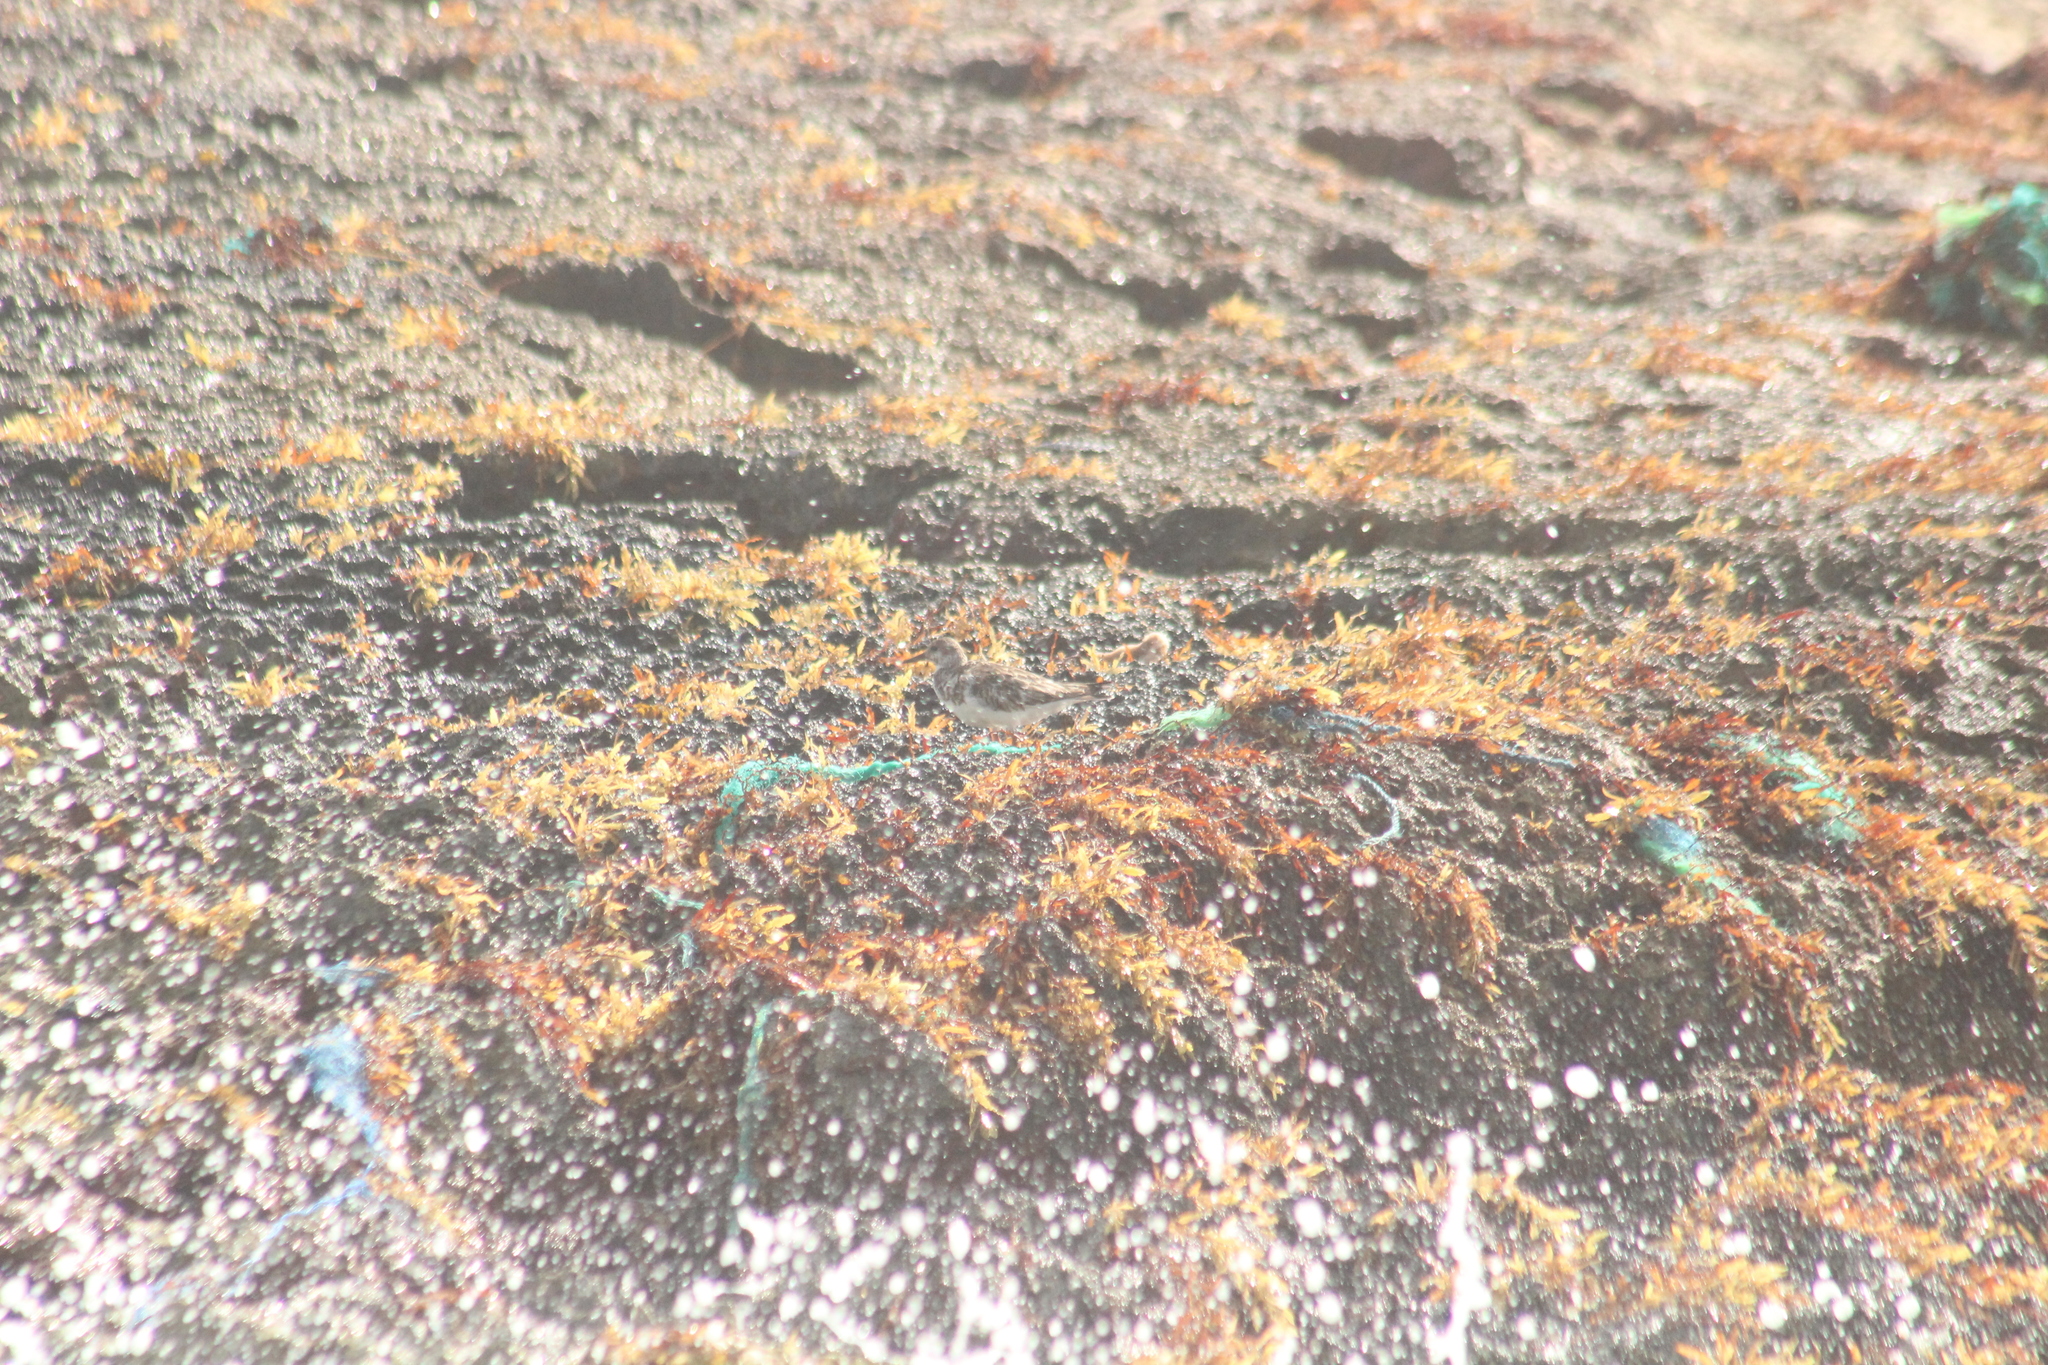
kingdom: Animalia
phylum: Chordata
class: Aves
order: Charadriiformes
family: Scolopacidae
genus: Arenaria
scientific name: Arenaria interpres
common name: Ruddy turnstone
